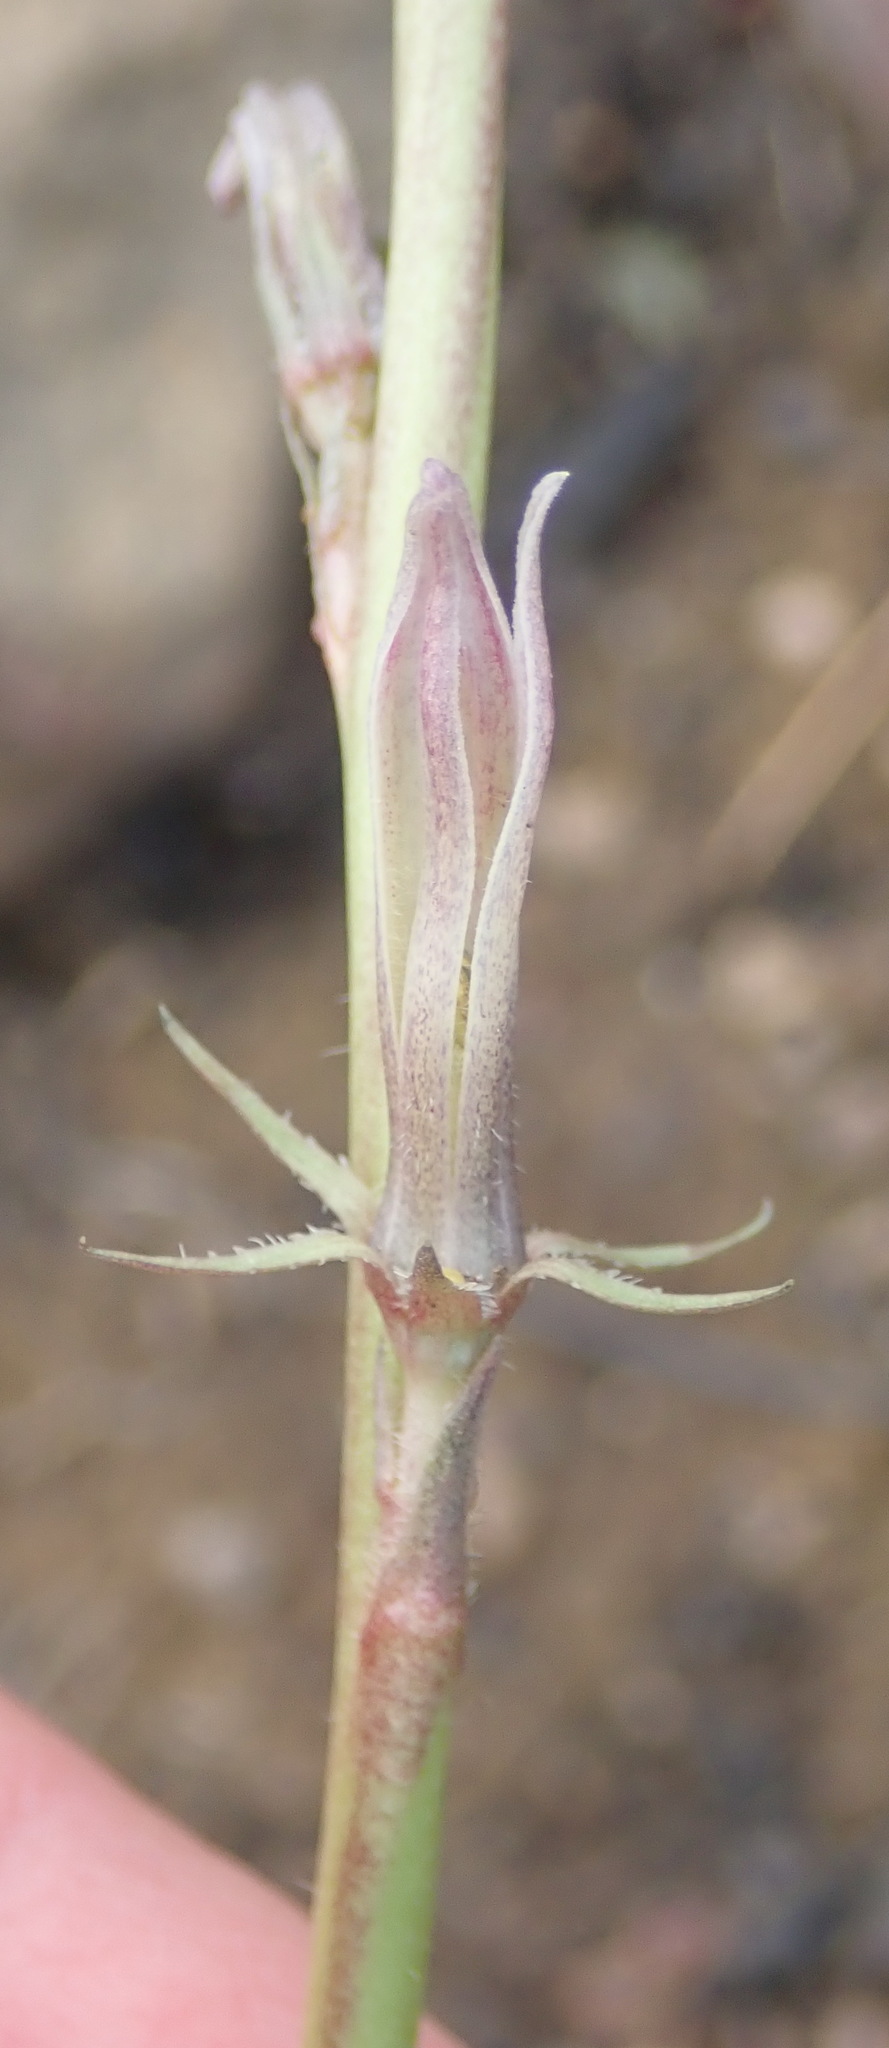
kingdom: Plantae
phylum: Tracheophyta
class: Magnoliopsida
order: Asterales
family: Campanulaceae
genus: Cyphia
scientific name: Cyphia phyteuma
